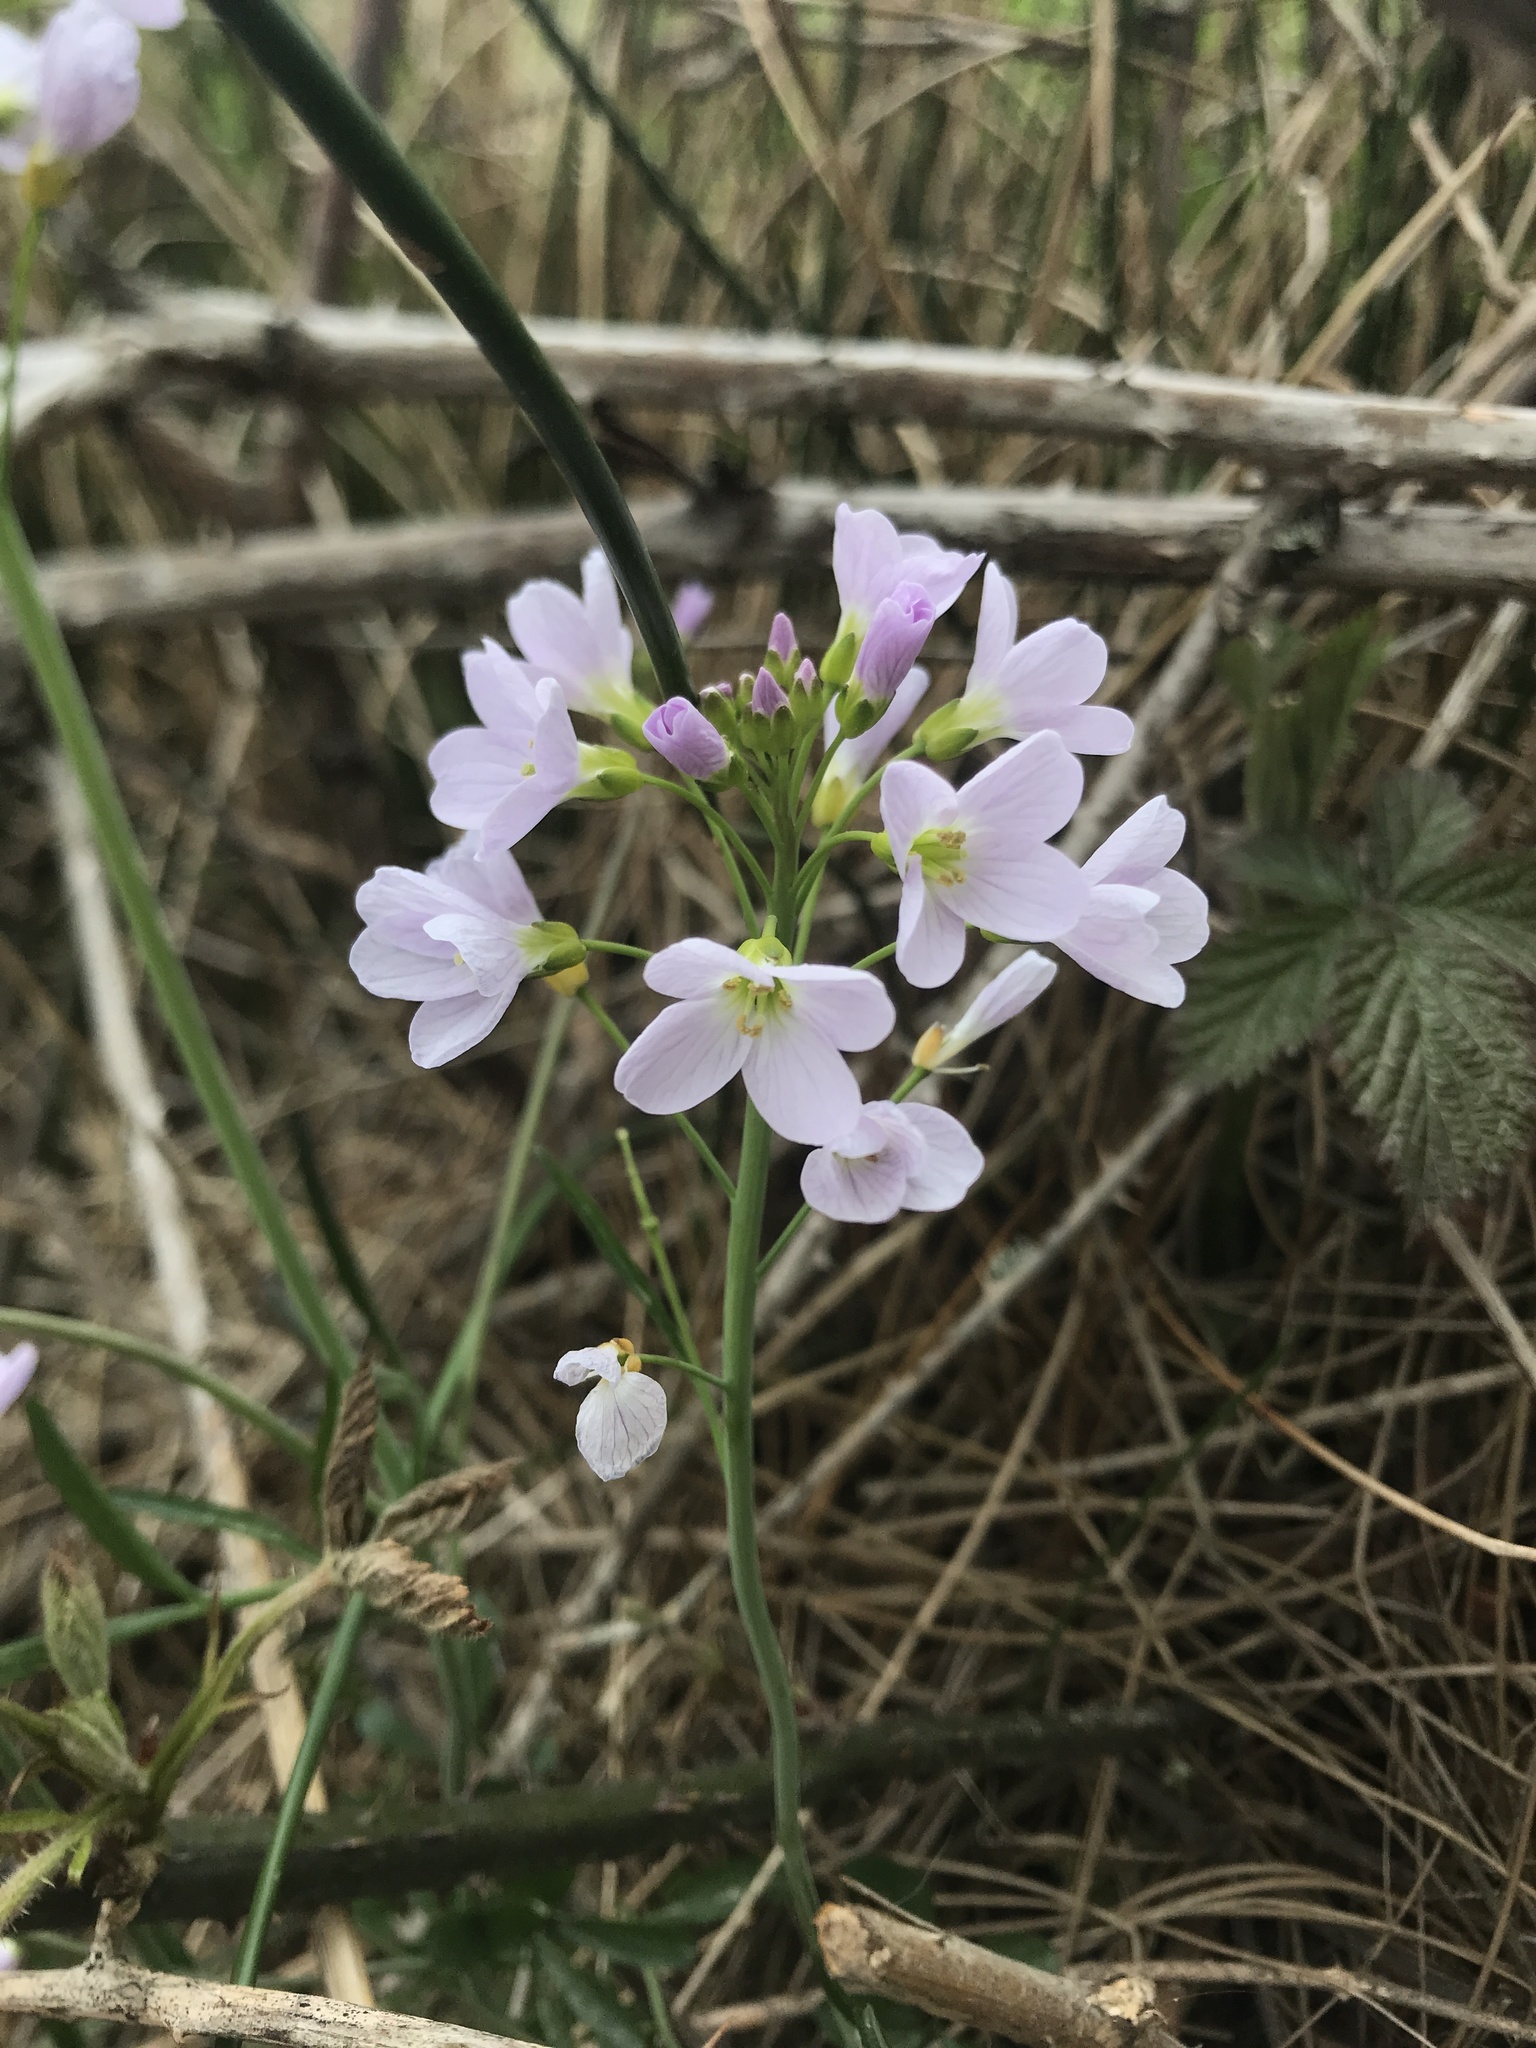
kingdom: Plantae
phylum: Tracheophyta
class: Magnoliopsida
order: Brassicales
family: Brassicaceae
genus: Cardamine
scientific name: Cardamine pratensis
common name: Cuckoo flower
